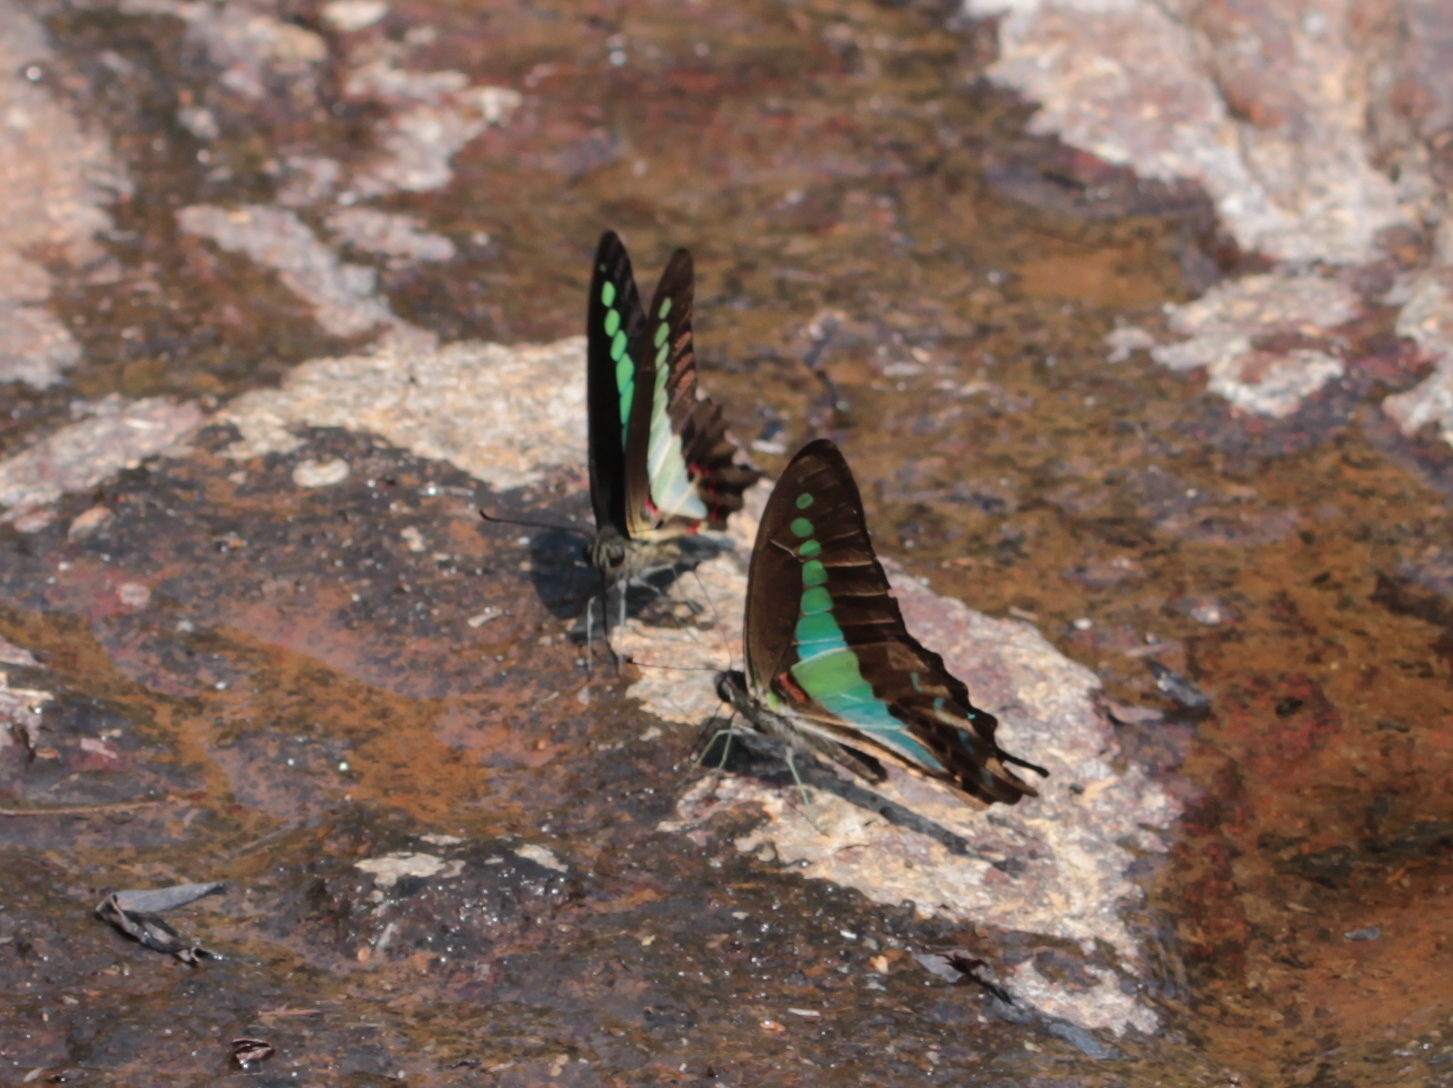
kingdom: Animalia
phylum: Arthropoda
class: Insecta
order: Lepidoptera
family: Papilionidae
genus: Graphium
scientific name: Graphium
